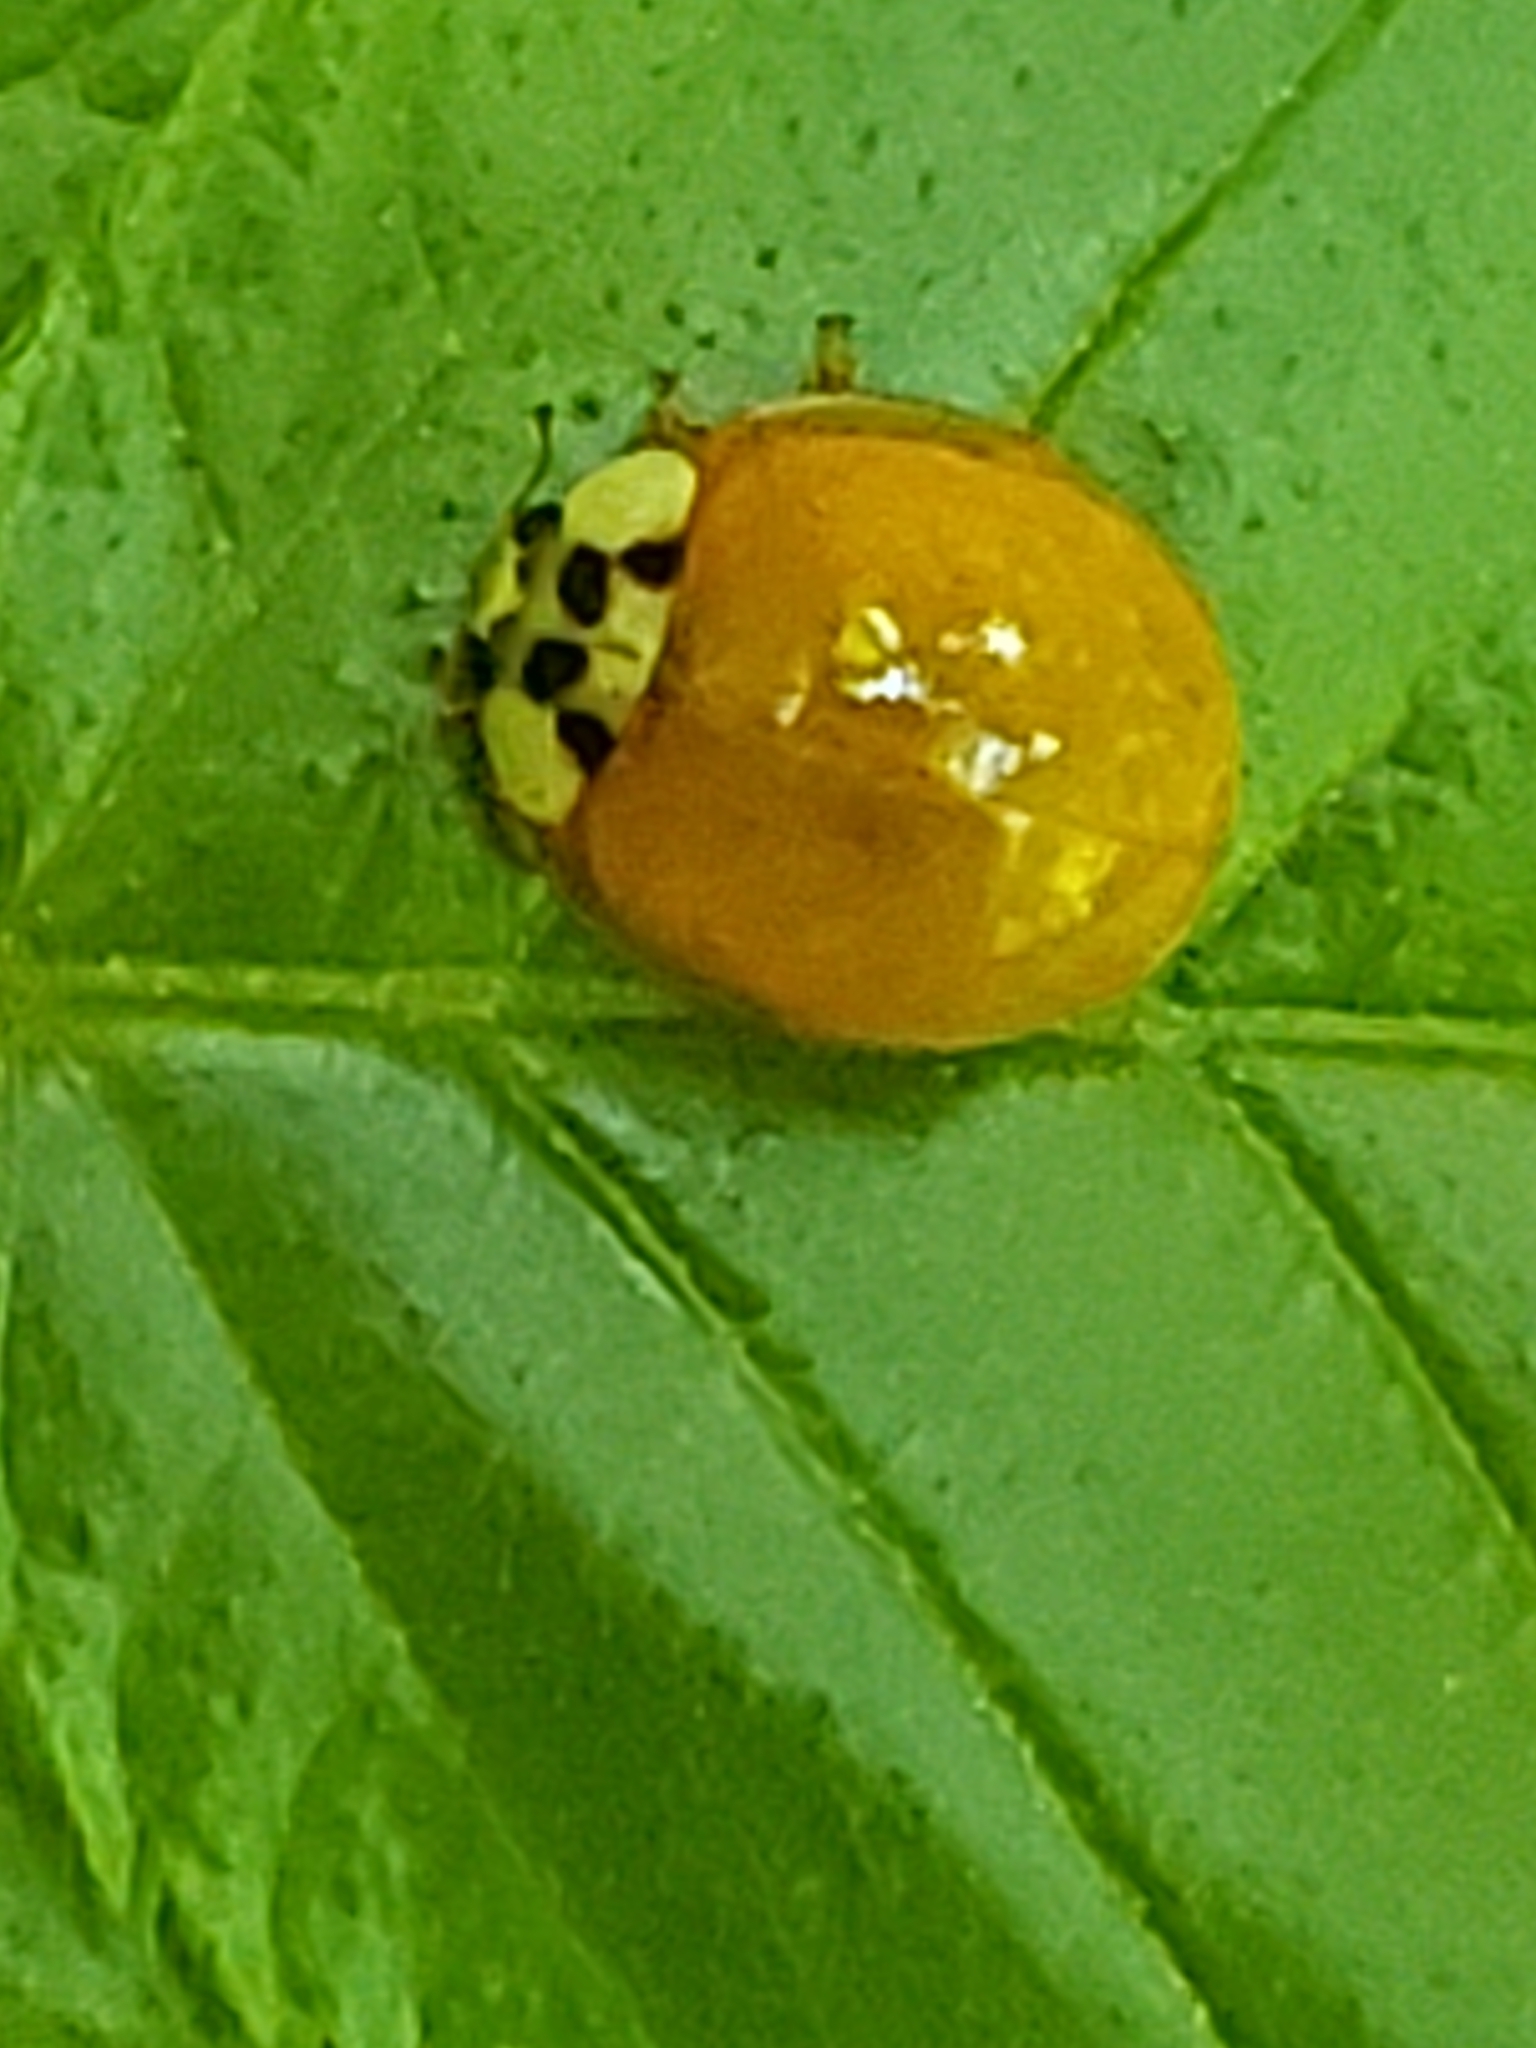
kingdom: Animalia
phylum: Arthropoda
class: Insecta
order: Coleoptera
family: Coccinellidae
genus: Harmonia
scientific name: Harmonia axyridis
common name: Harlequin ladybird
